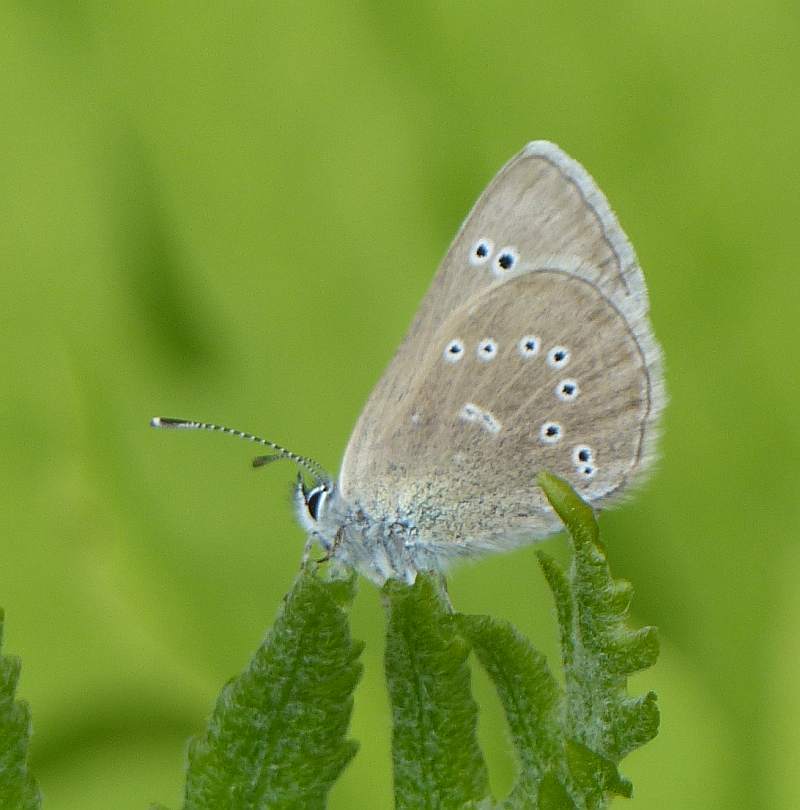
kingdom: Animalia
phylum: Arthropoda
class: Insecta
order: Lepidoptera
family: Lycaenidae
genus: Glaucopsyche
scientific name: Glaucopsyche lygdamus
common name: Silvery blue
